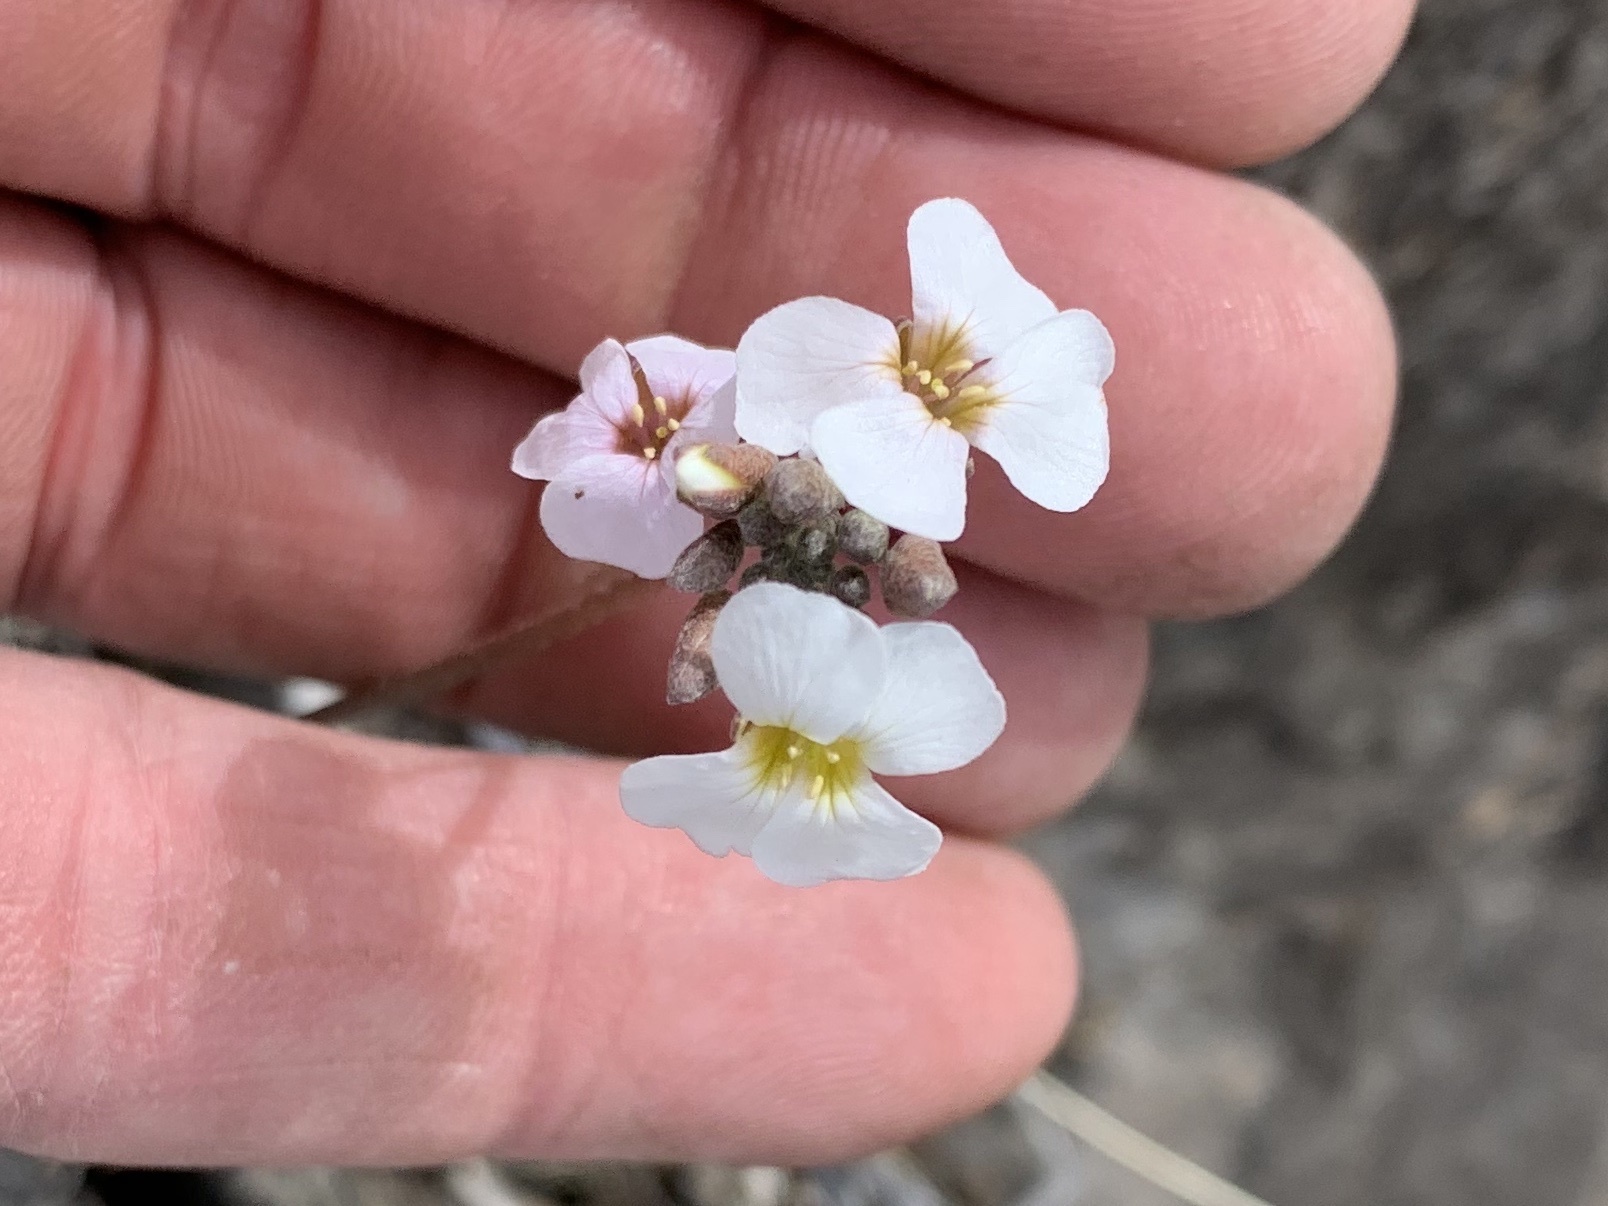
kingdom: Plantae
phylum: Tracheophyta
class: Magnoliopsida
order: Brassicales
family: Brassicaceae
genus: Nerisyrenia
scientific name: Nerisyrenia camporum
